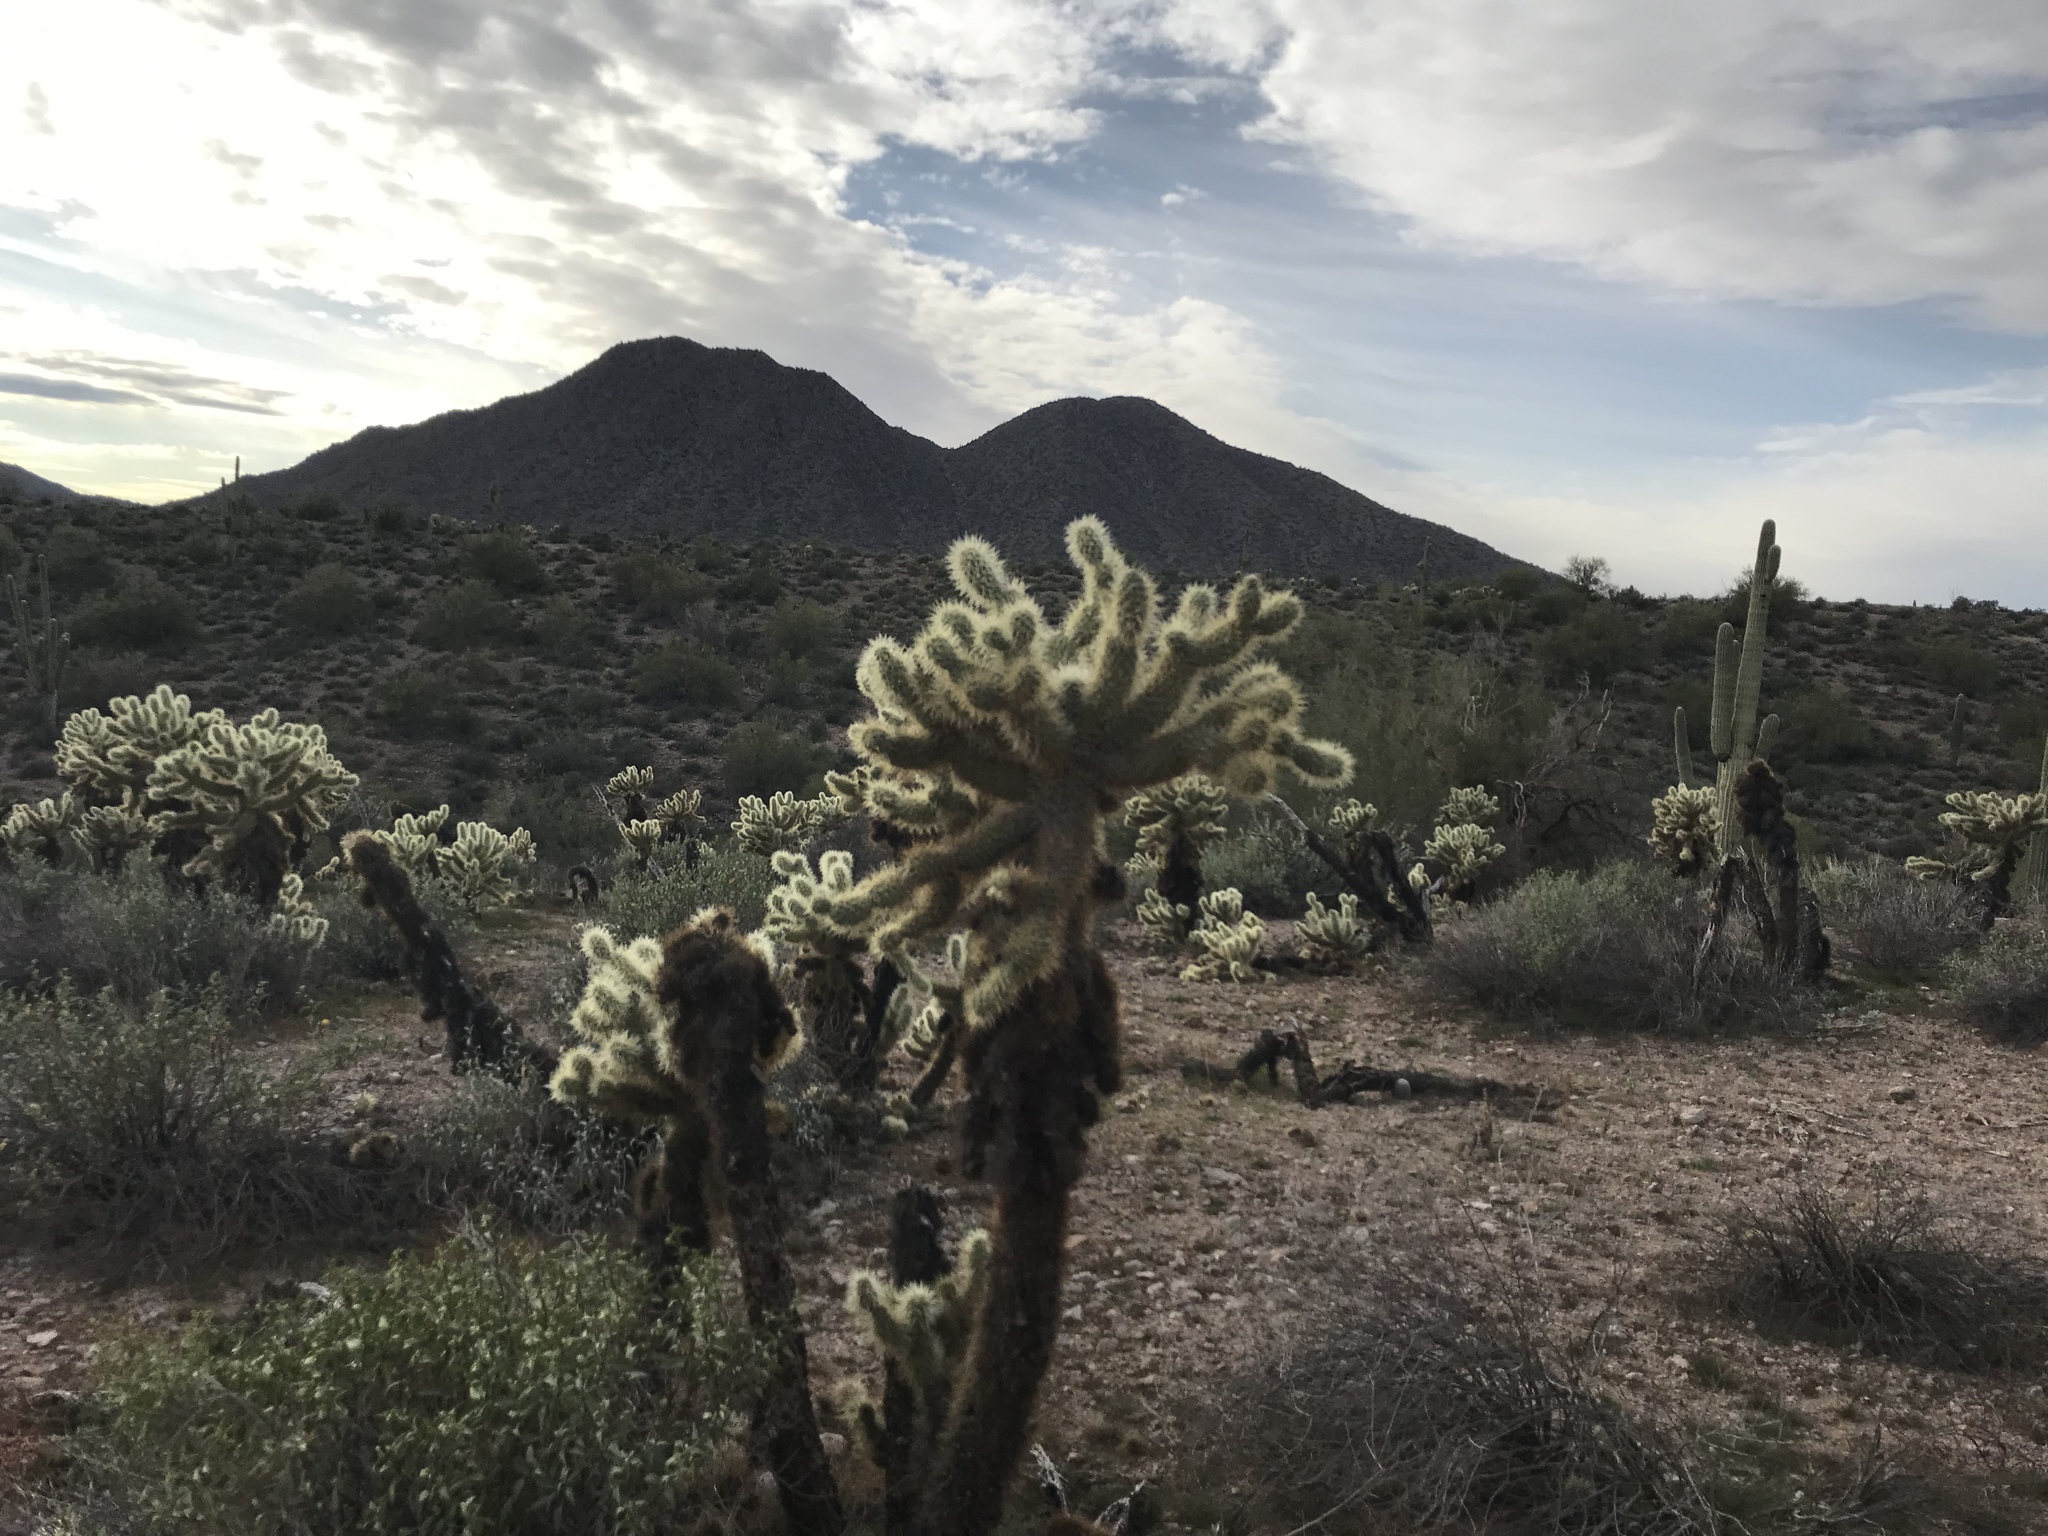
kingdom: Plantae
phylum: Tracheophyta
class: Magnoliopsida
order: Caryophyllales
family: Cactaceae
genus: Cylindropuntia
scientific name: Cylindropuntia fosbergii
